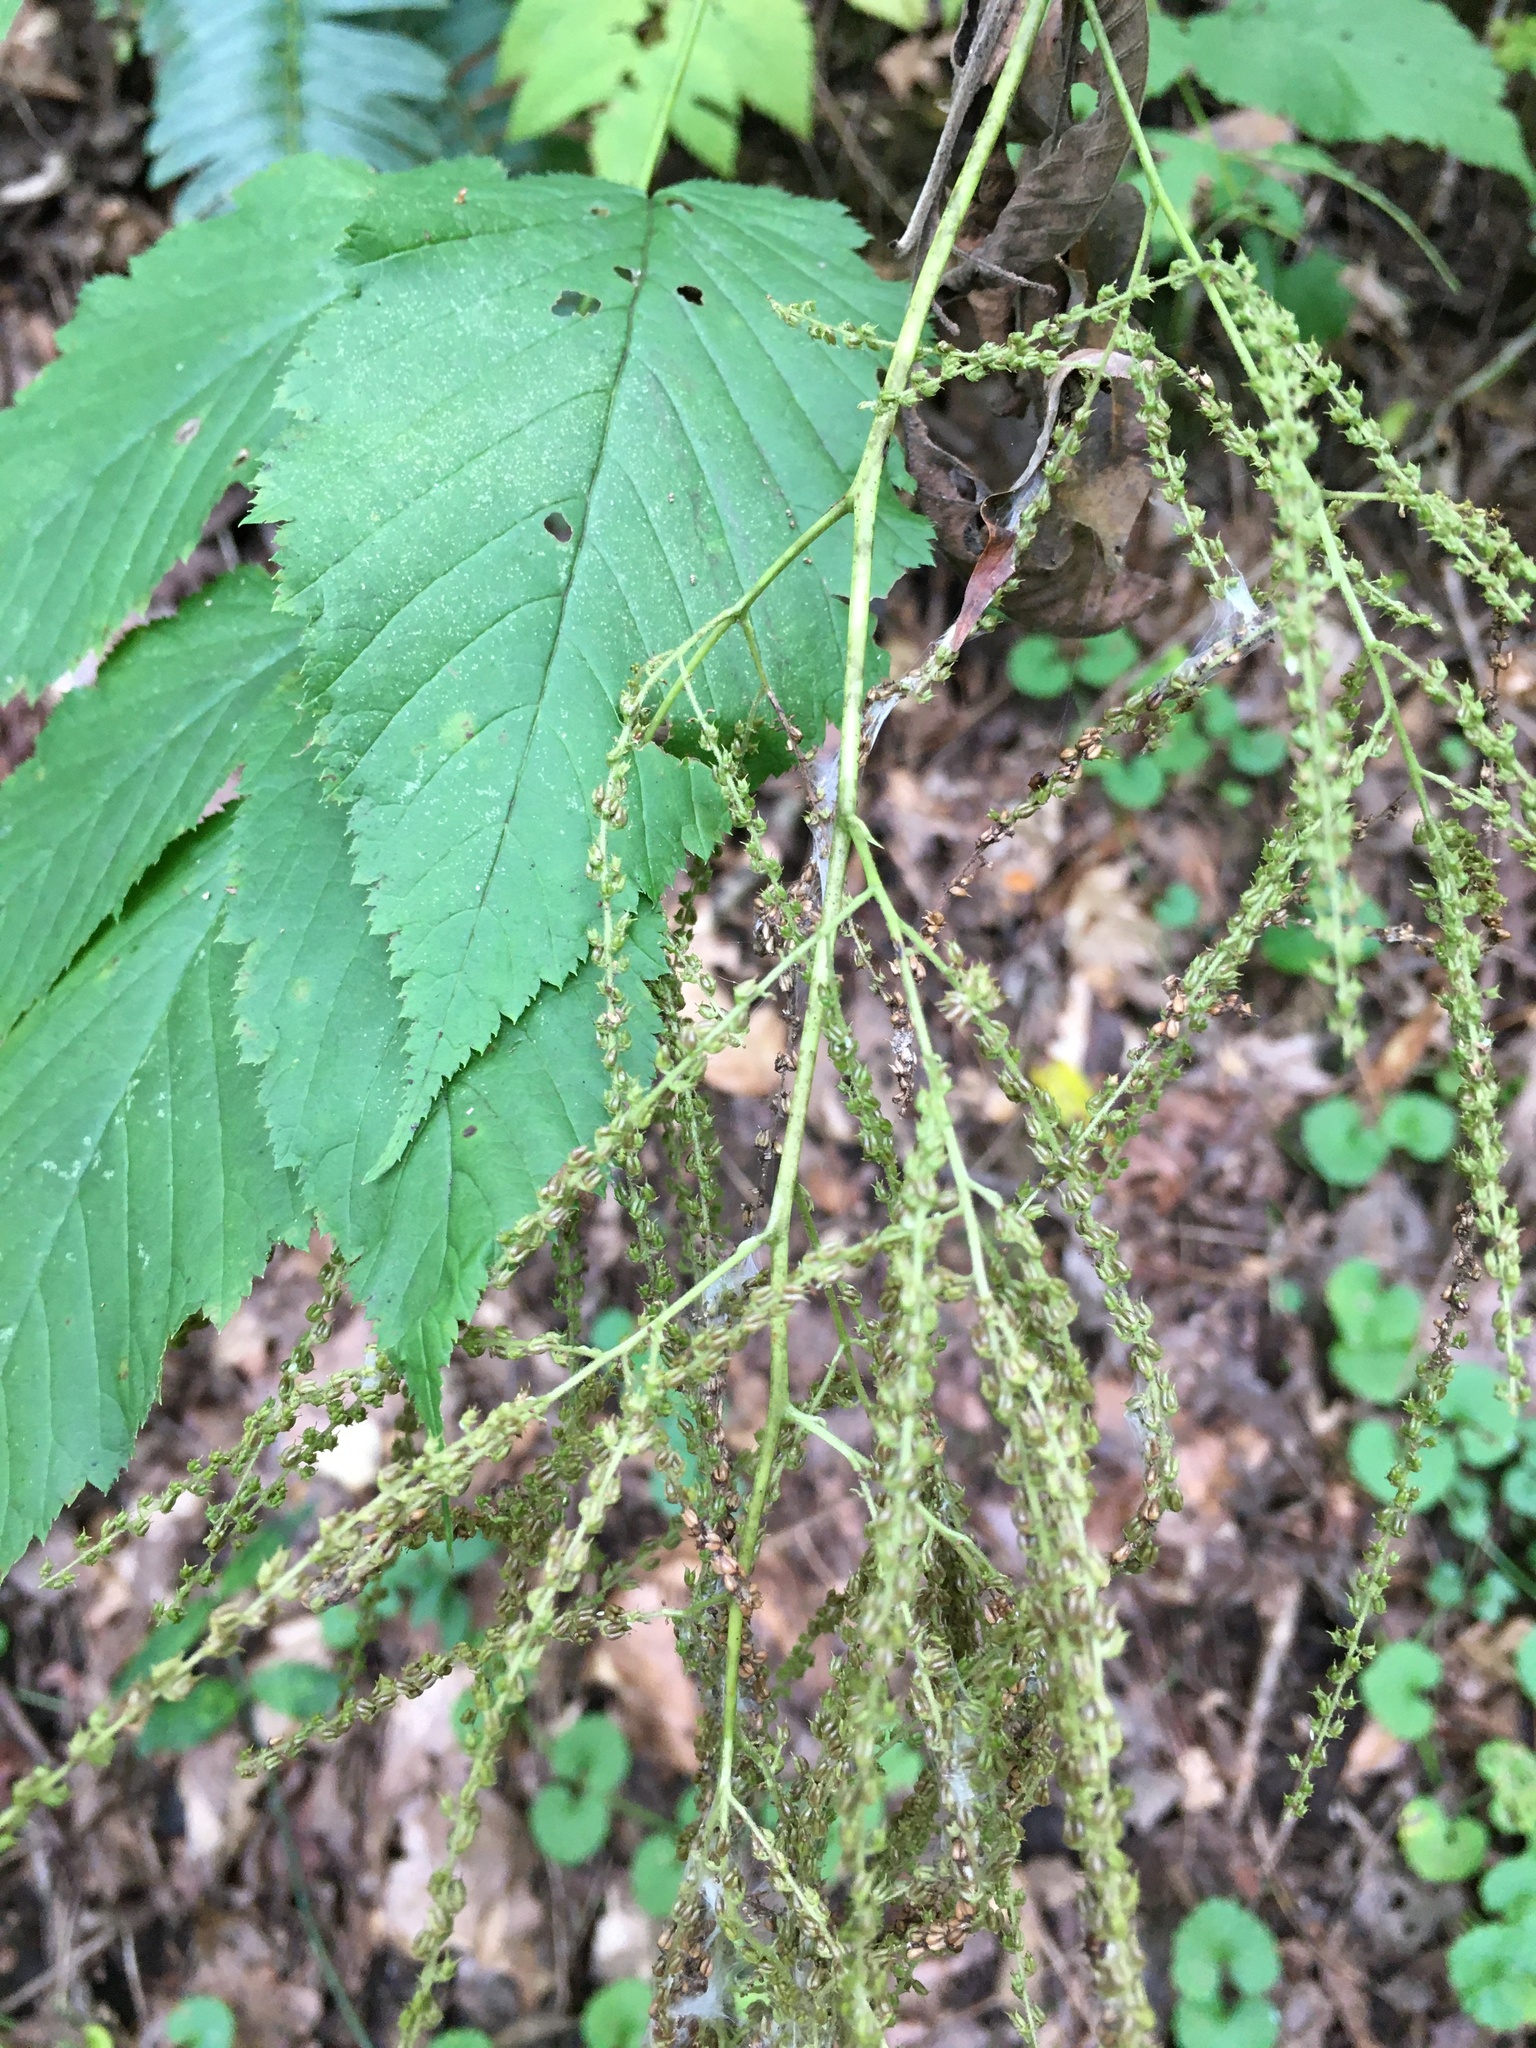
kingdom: Plantae
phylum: Tracheophyta
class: Magnoliopsida
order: Rosales
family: Rosaceae
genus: Aruncus
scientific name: Aruncus dioicus
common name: Buck's-beard
